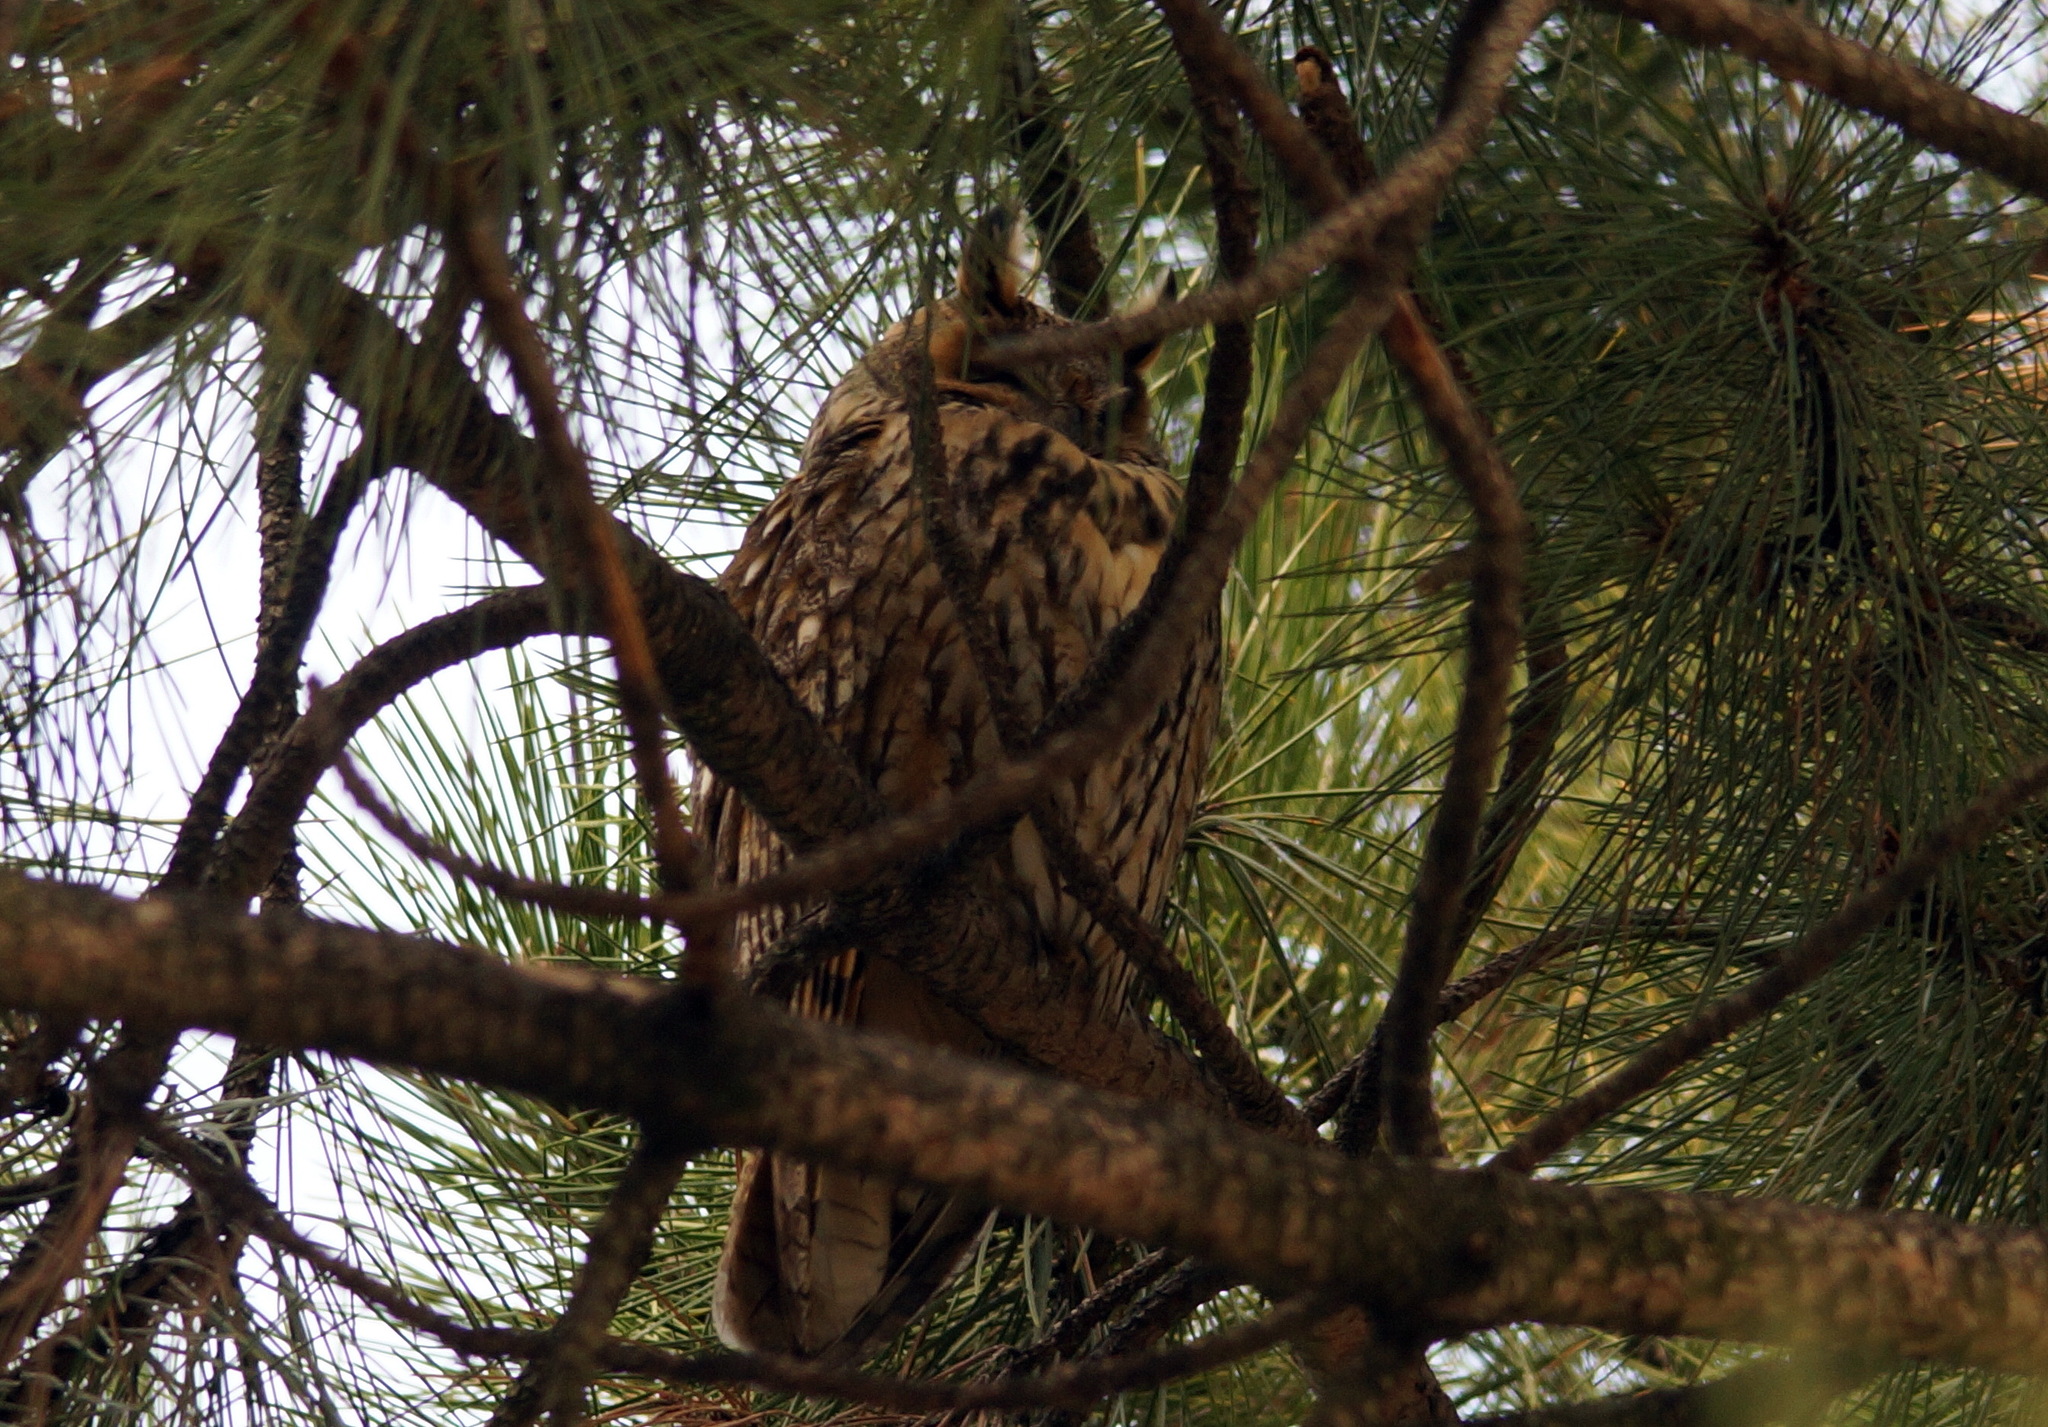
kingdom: Animalia
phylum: Chordata
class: Aves
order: Strigiformes
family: Strigidae
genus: Asio
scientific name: Asio otus
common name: Long-eared owl
